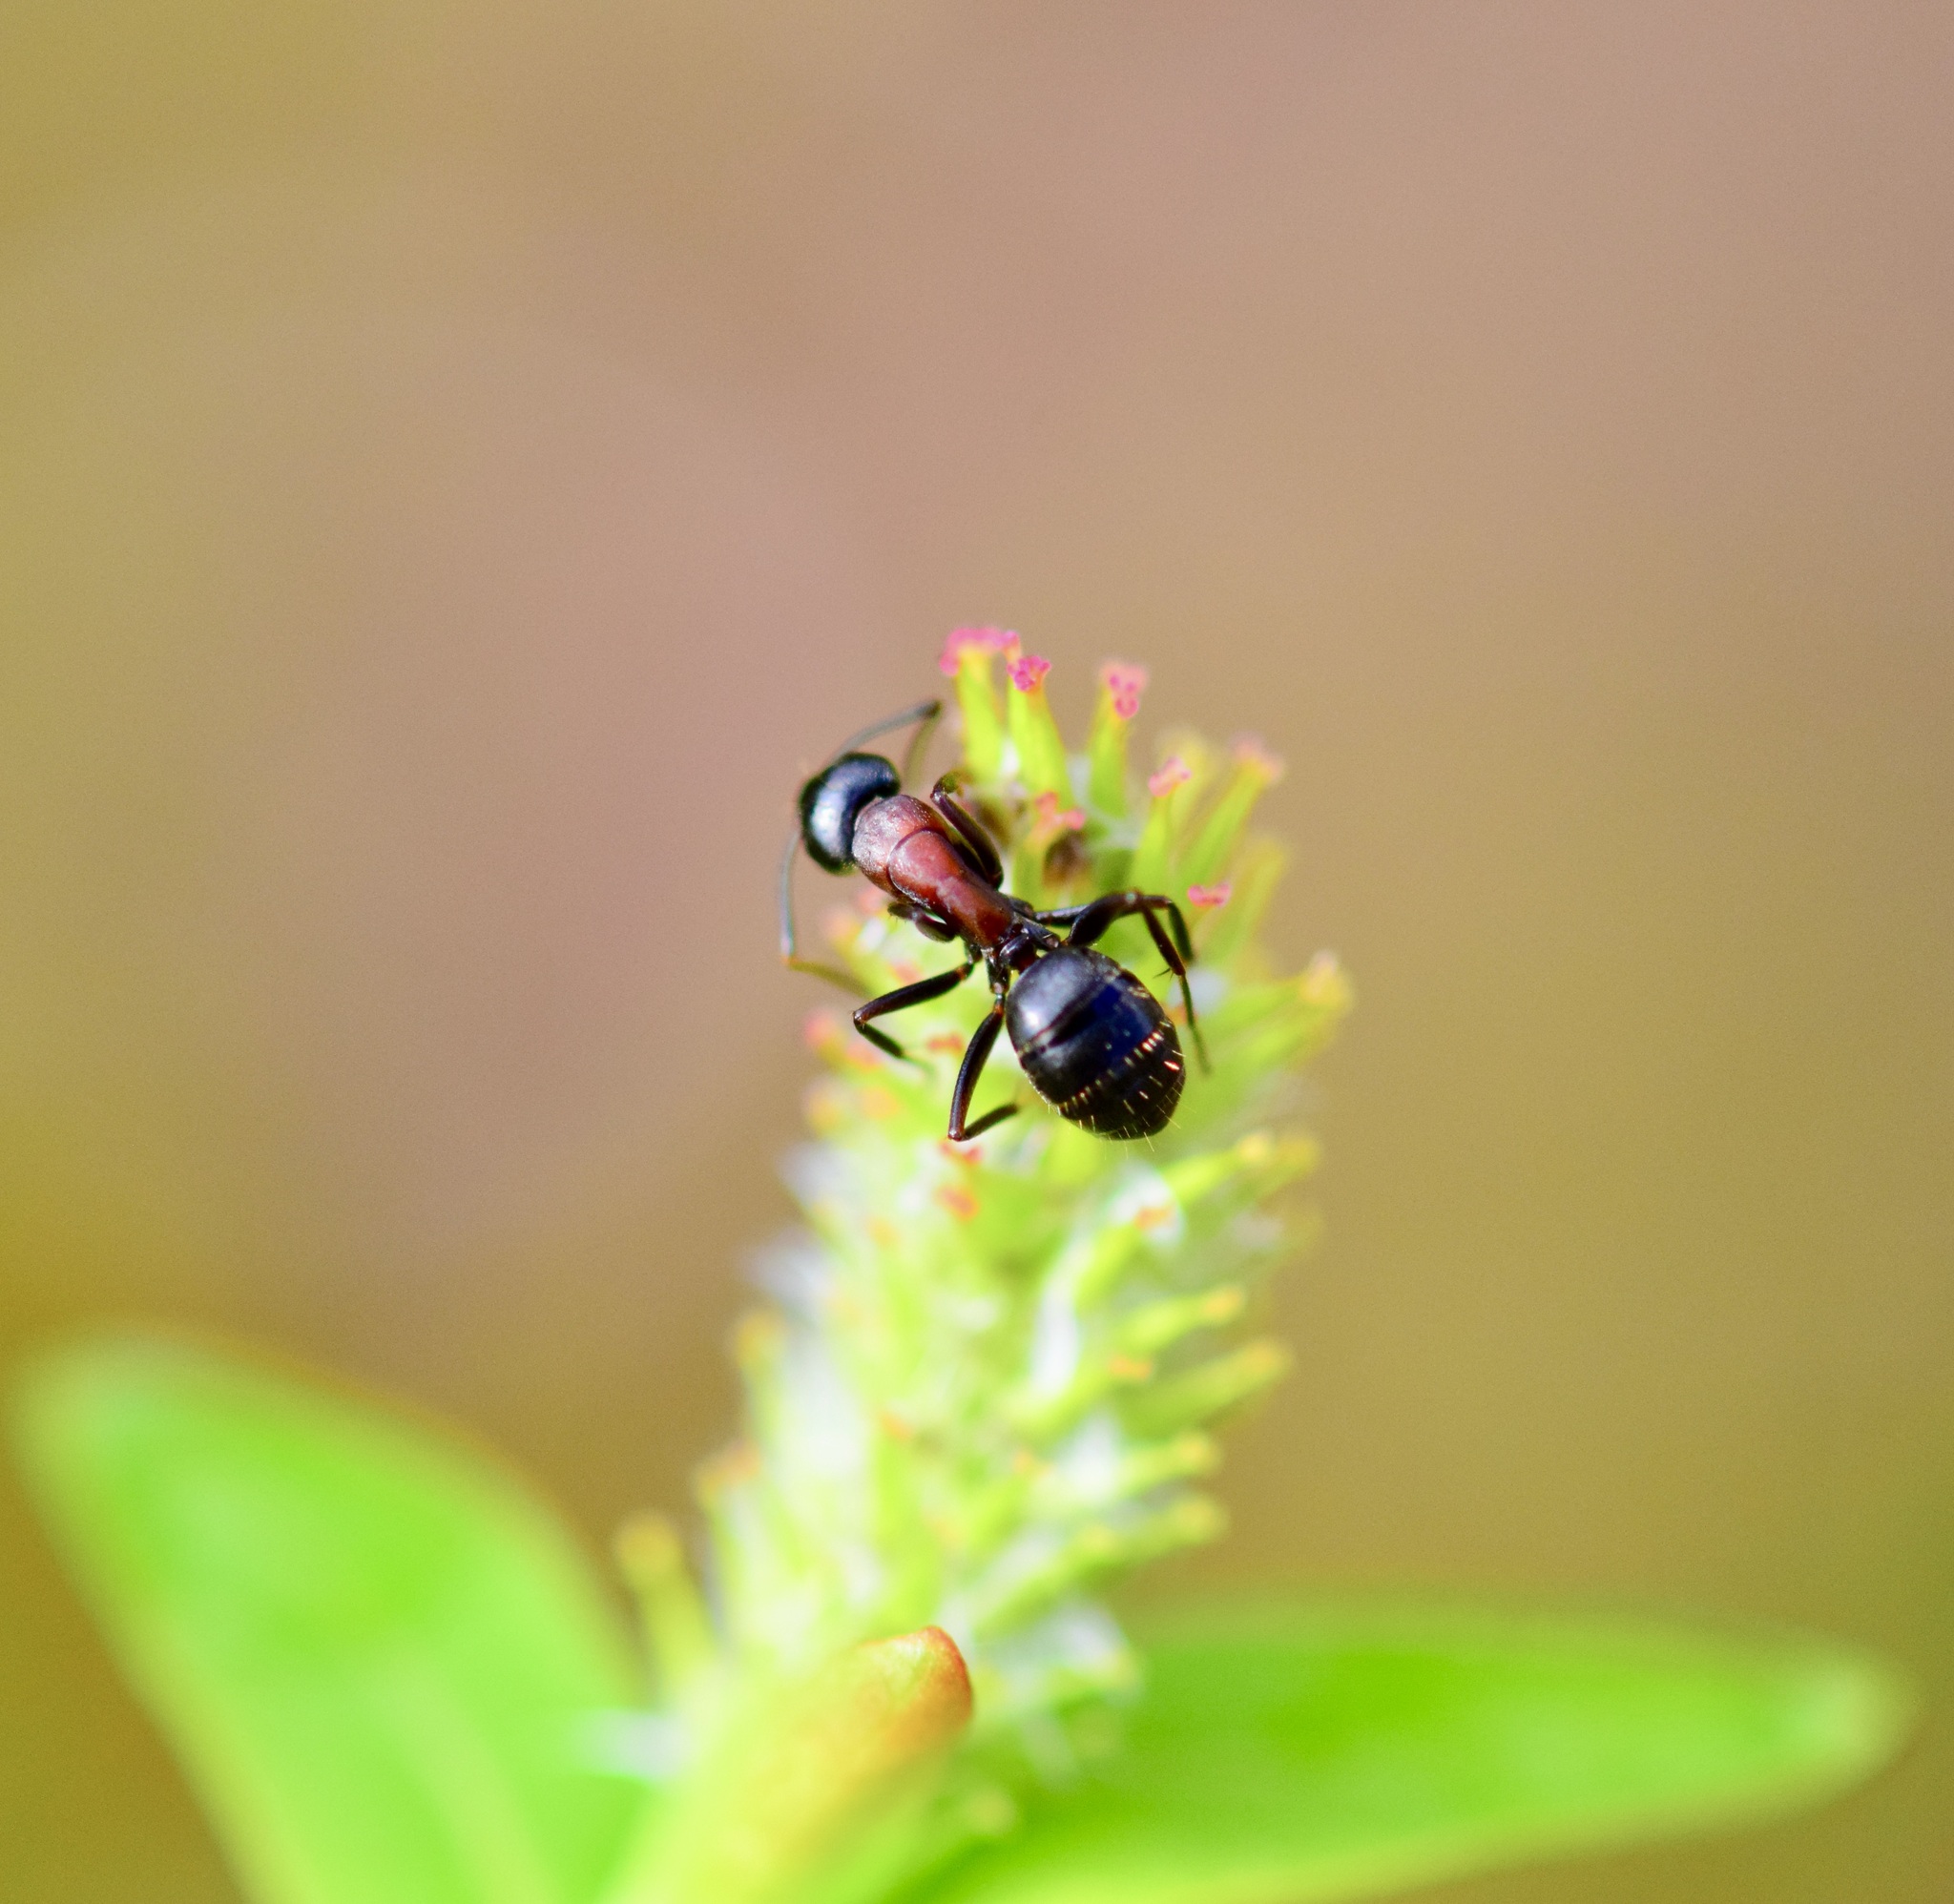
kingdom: Animalia
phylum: Arthropoda
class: Insecta
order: Hymenoptera
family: Formicidae
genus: Camponotus
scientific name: Camponotus novaeboracensis
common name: New york carpenter ant
